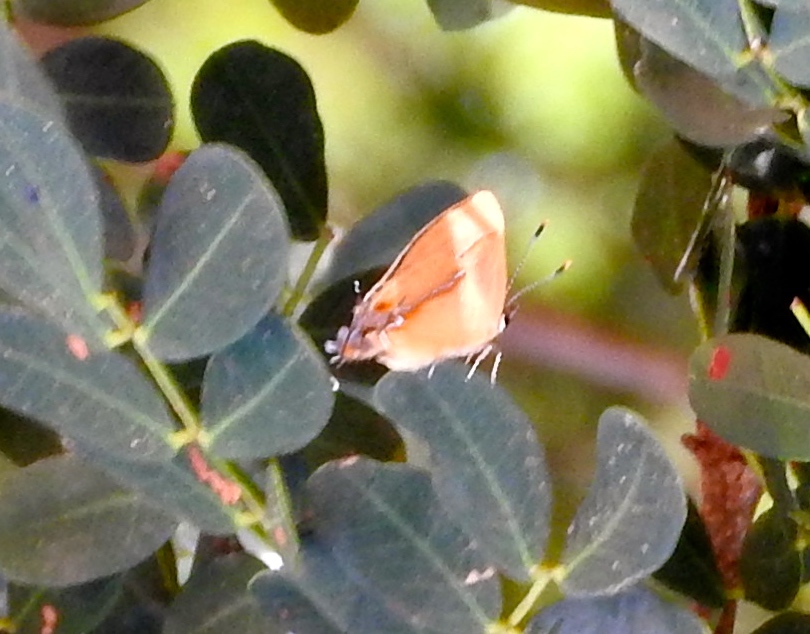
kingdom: Animalia
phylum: Arthropoda
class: Insecta
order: Lepidoptera
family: Lycaenidae
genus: Thecla
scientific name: Thecla demonassa
